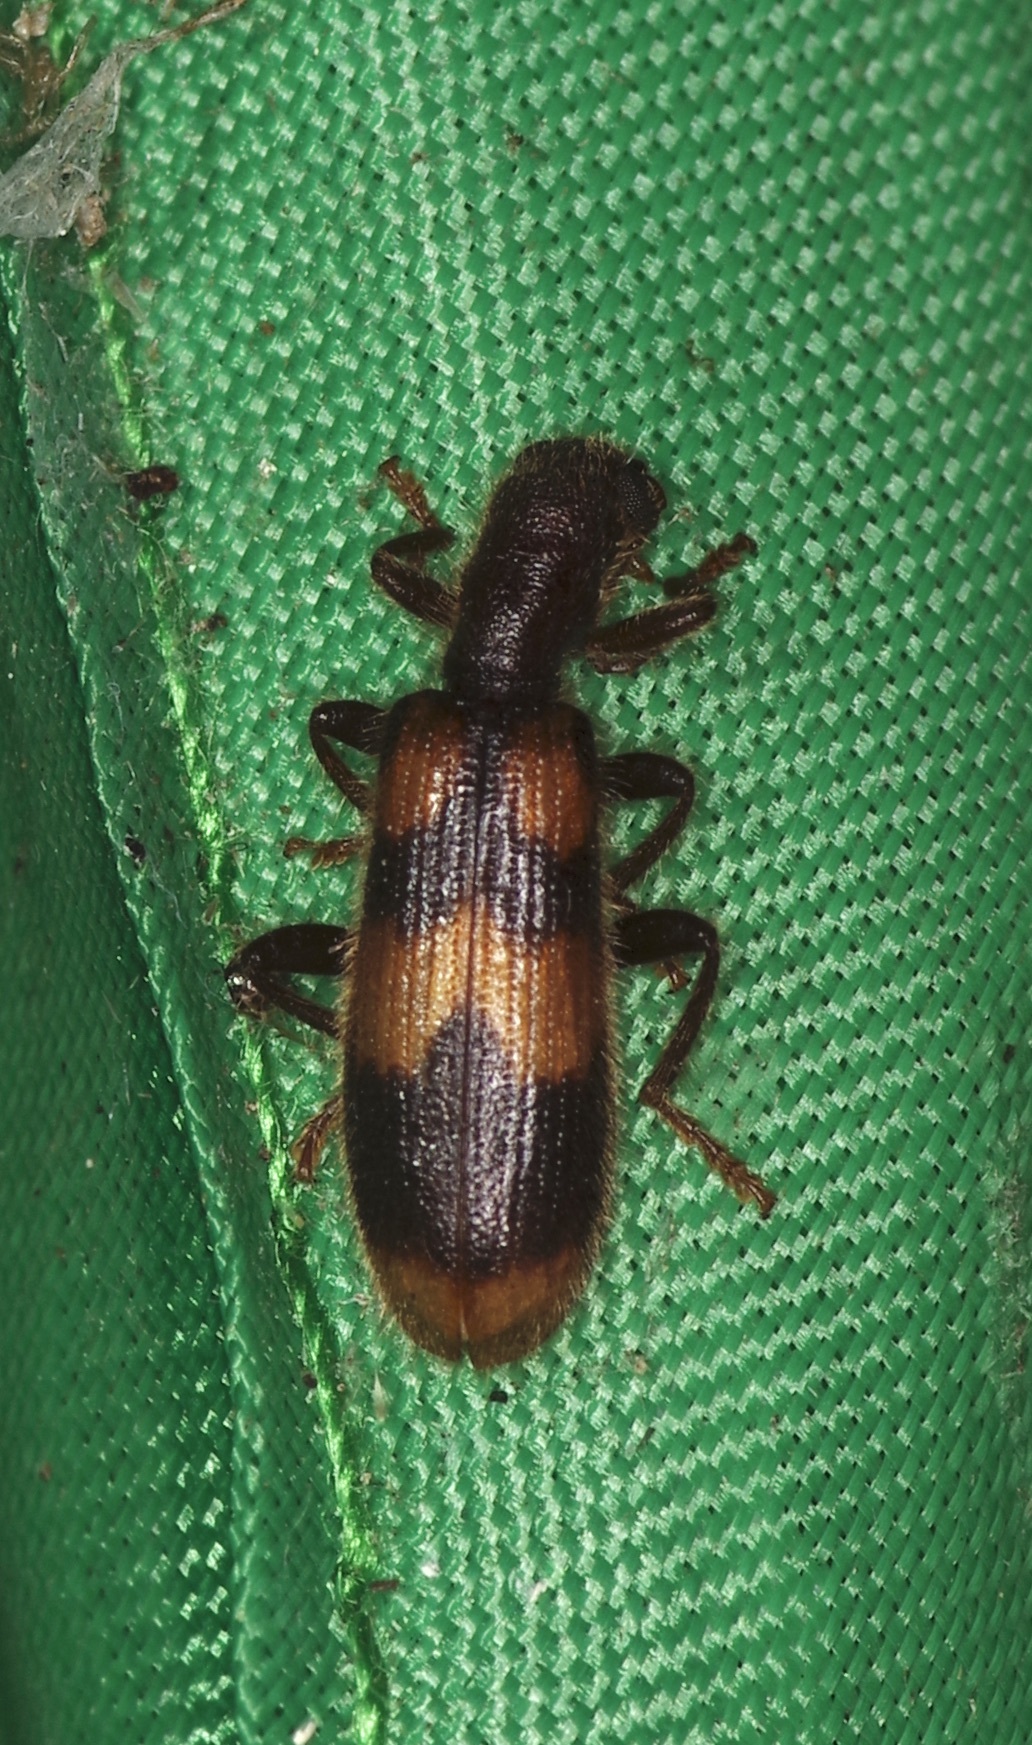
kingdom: Animalia
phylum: Arthropoda
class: Insecta
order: Coleoptera
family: Cleridae
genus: Cymatodera
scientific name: Cymatodera sirpata
